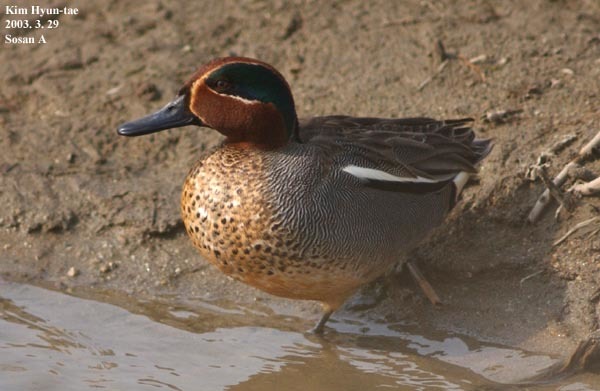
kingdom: Animalia
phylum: Chordata
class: Aves
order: Anseriformes
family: Anatidae
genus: Anas
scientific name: Anas crecca
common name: Eurasian teal
